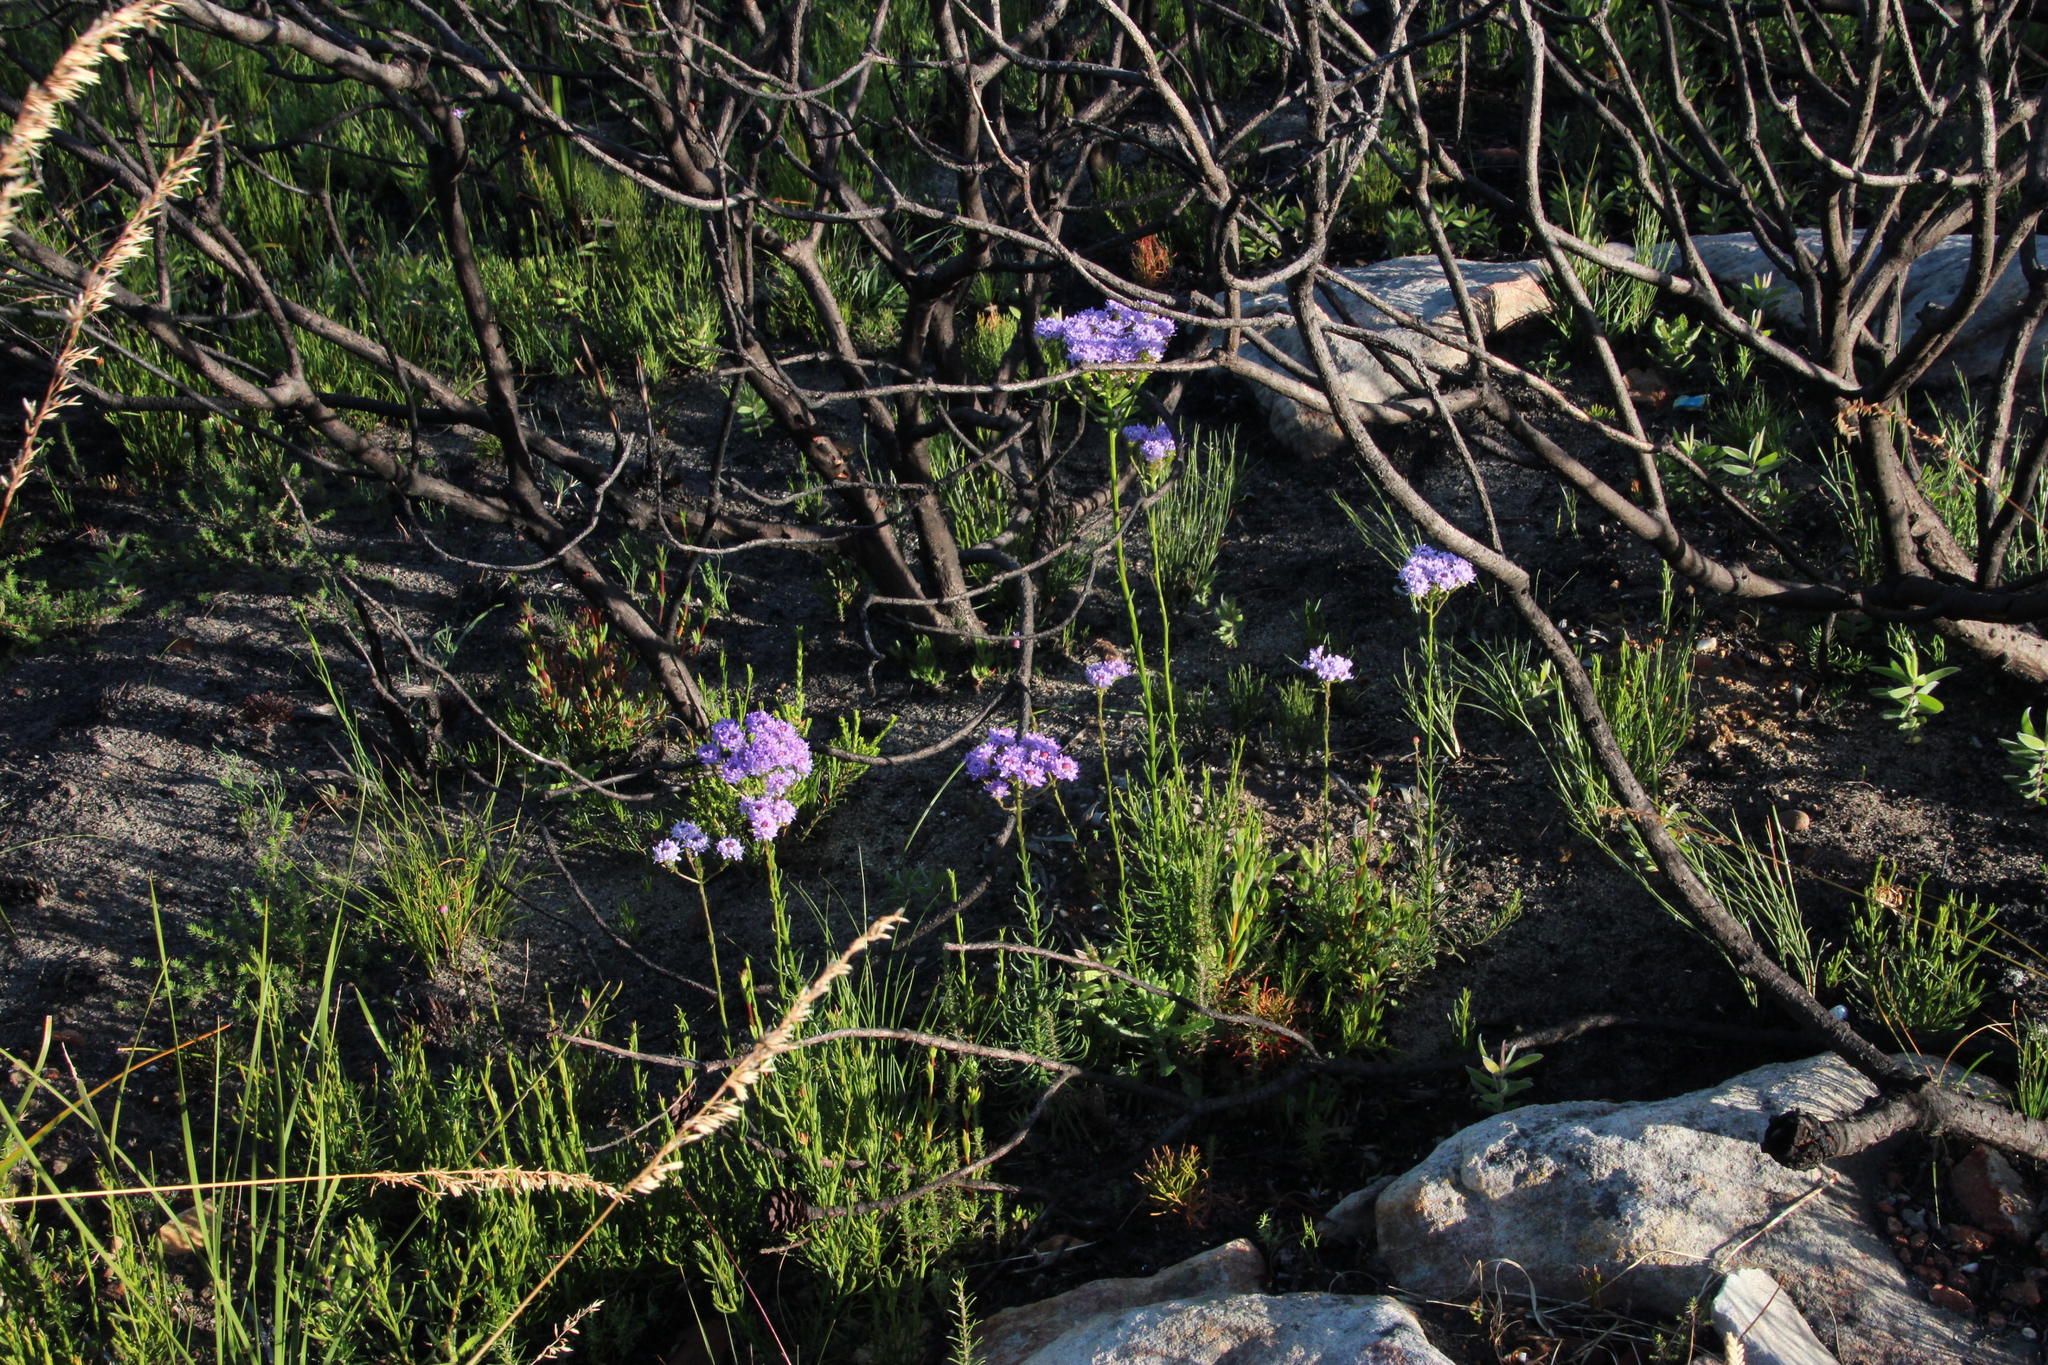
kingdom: Plantae
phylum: Tracheophyta
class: Magnoliopsida
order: Lamiales
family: Scrophulariaceae
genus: Pseudoselago
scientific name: Pseudoselago spuria
